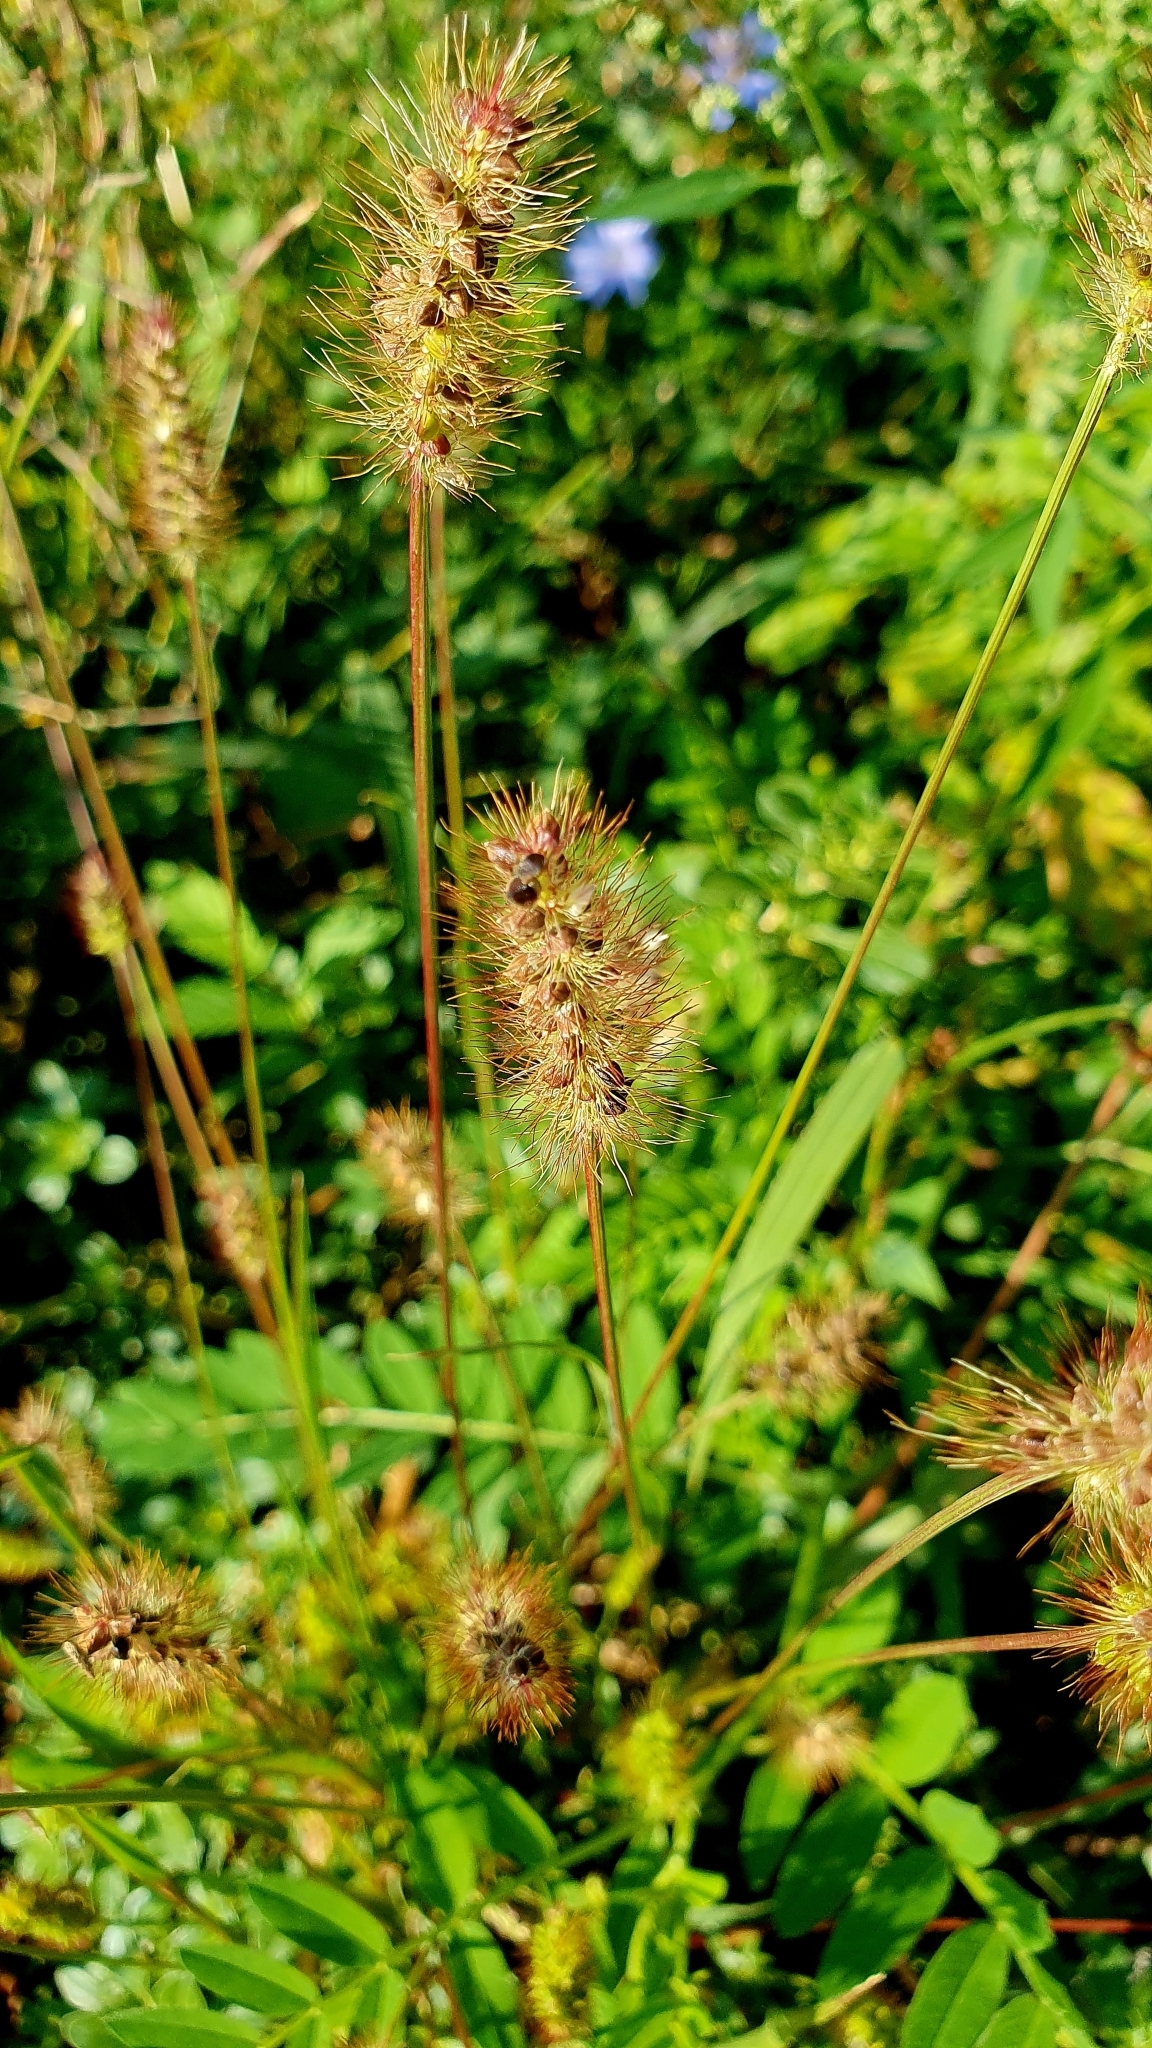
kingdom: Plantae
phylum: Tracheophyta
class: Liliopsida
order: Poales
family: Poaceae
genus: Setaria
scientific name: Setaria pumila
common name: Yellow bristle-grass
